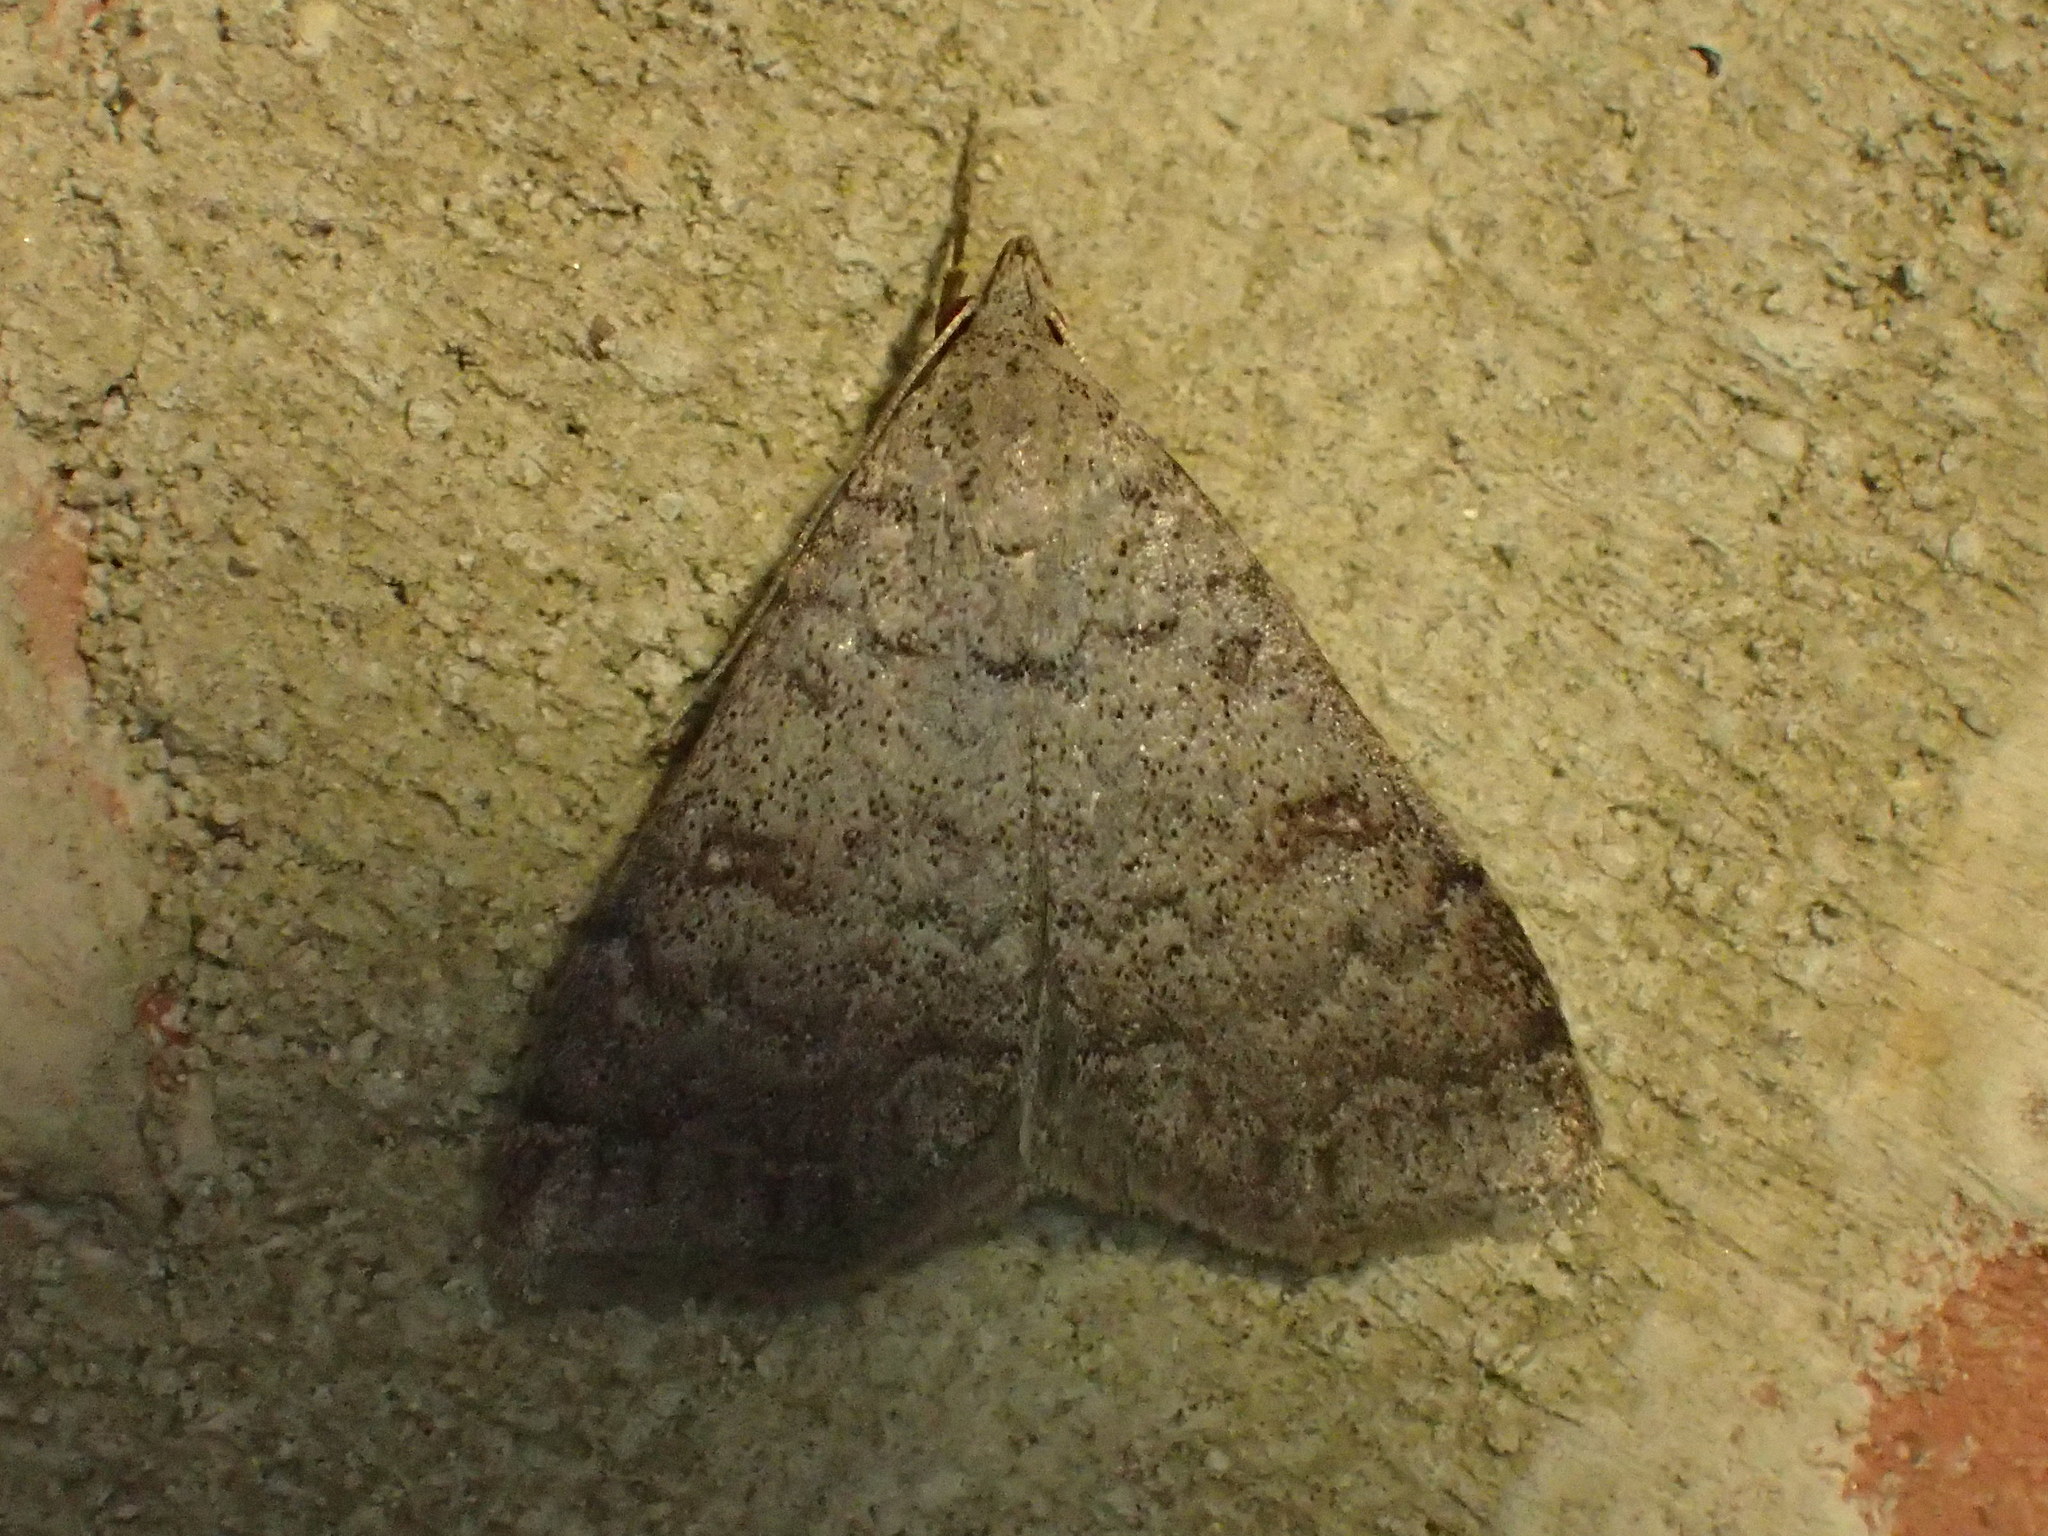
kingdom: Animalia
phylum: Arthropoda
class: Insecta
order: Lepidoptera
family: Erebidae
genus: Bleptina
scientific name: Bleptina sangamonia
